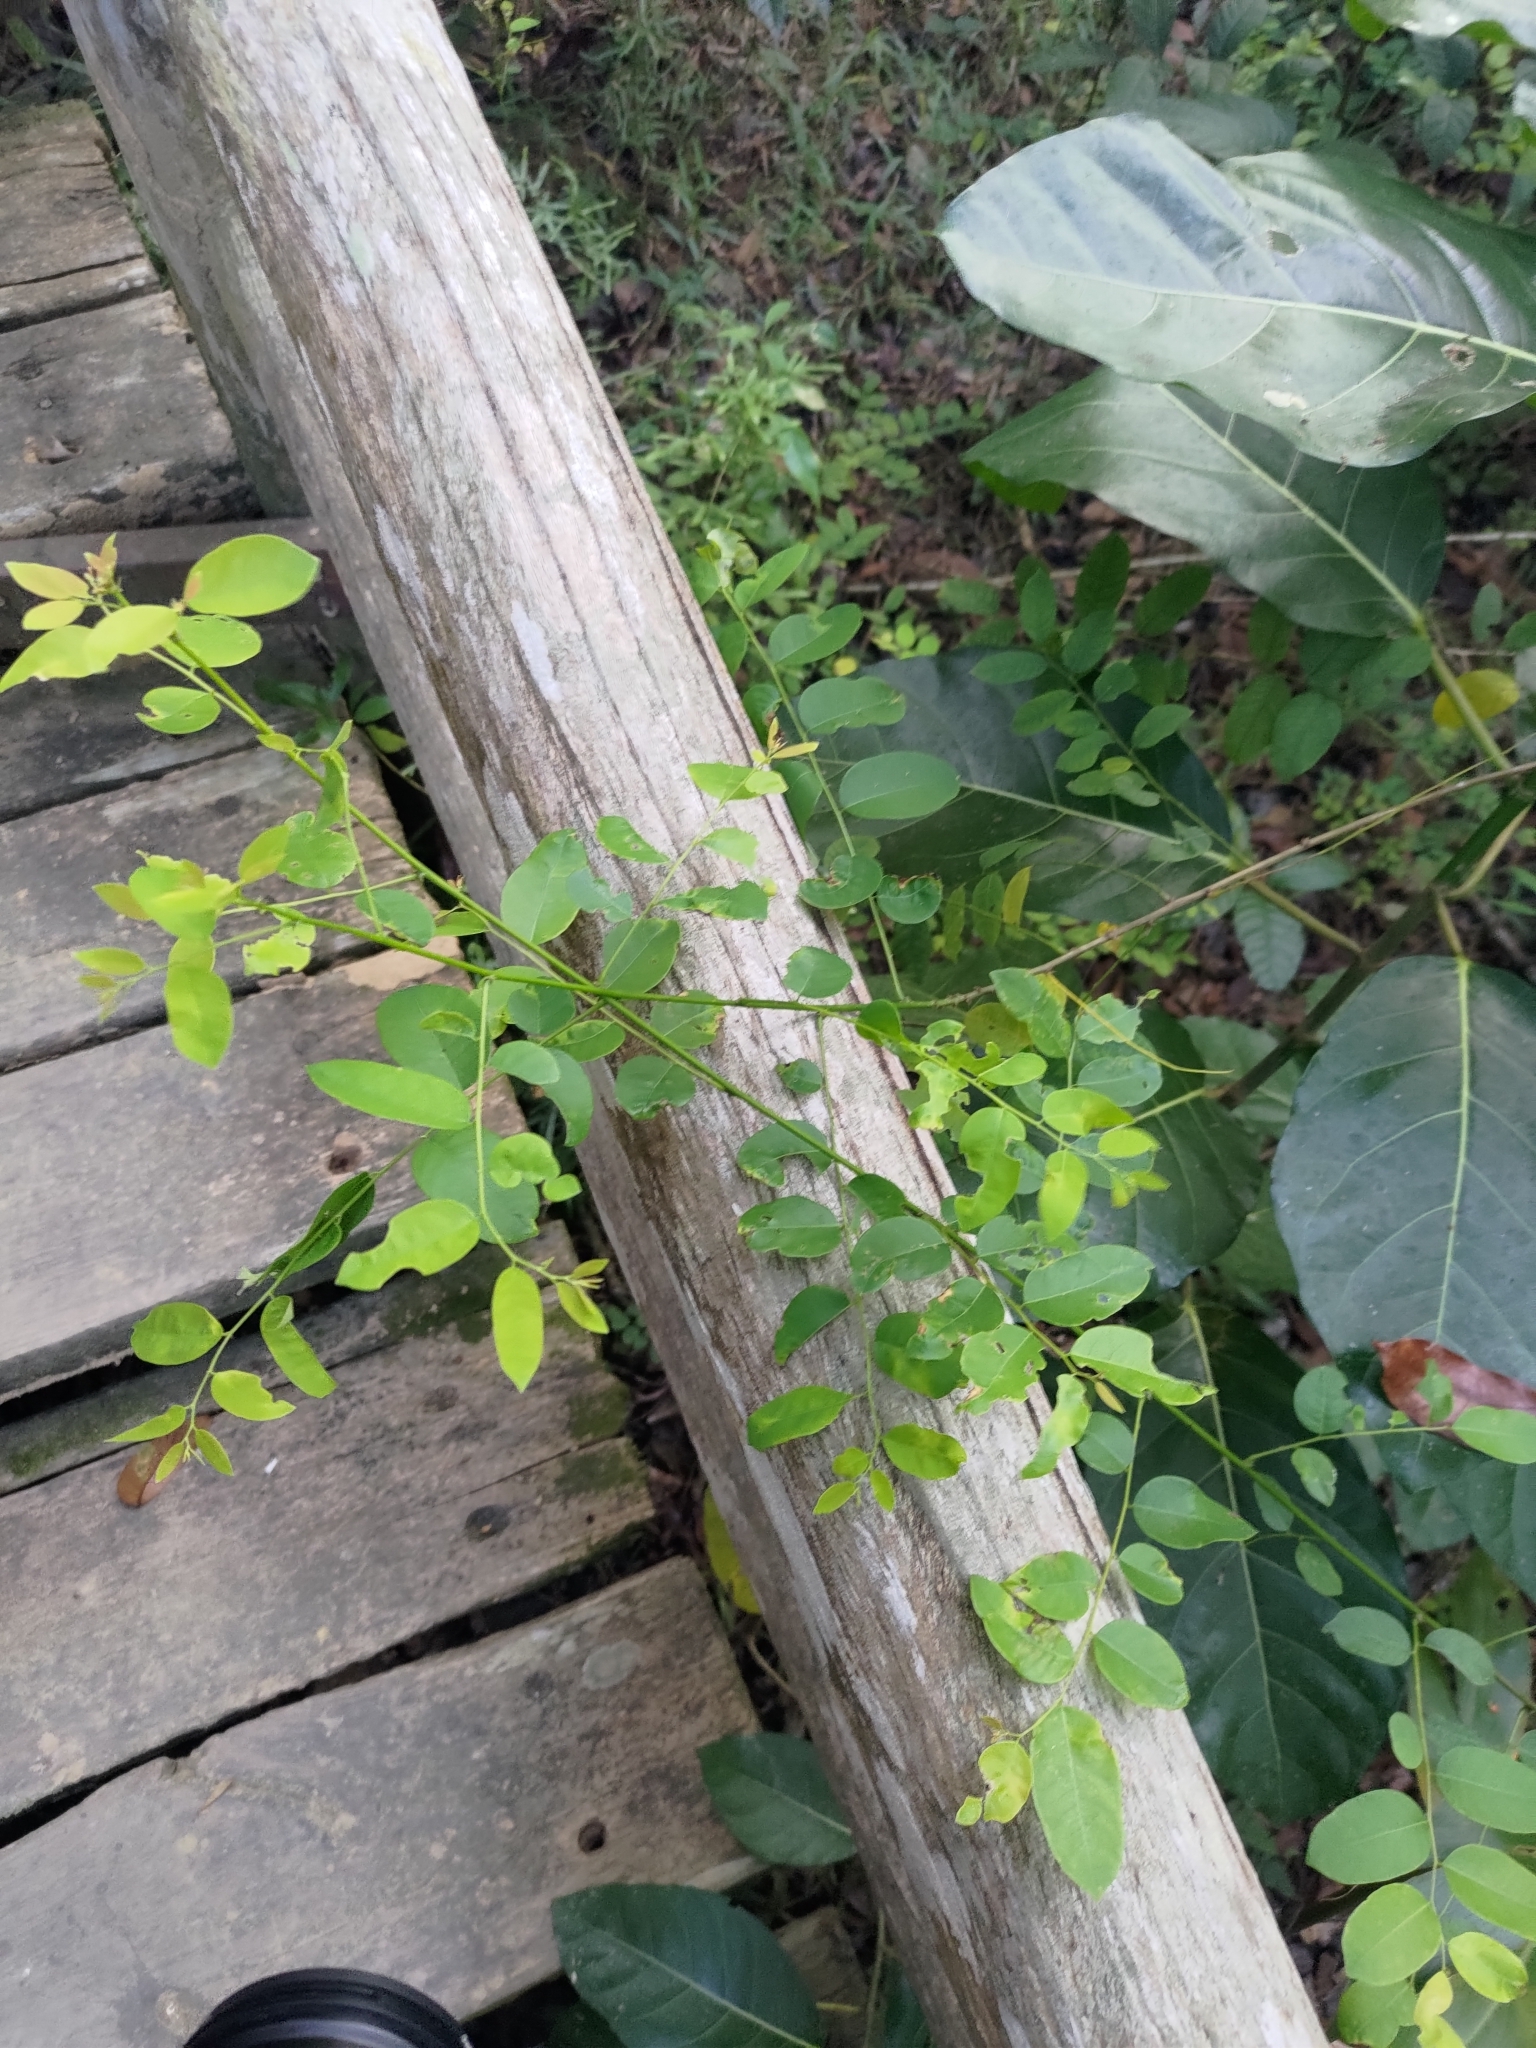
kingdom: Plantae
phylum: Tracheophyta
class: Magnoliopsida
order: Malpighiales
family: Phyllanthaceae
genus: Phyllanthus
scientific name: Phyllanthus reticulatus
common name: Potato bush
